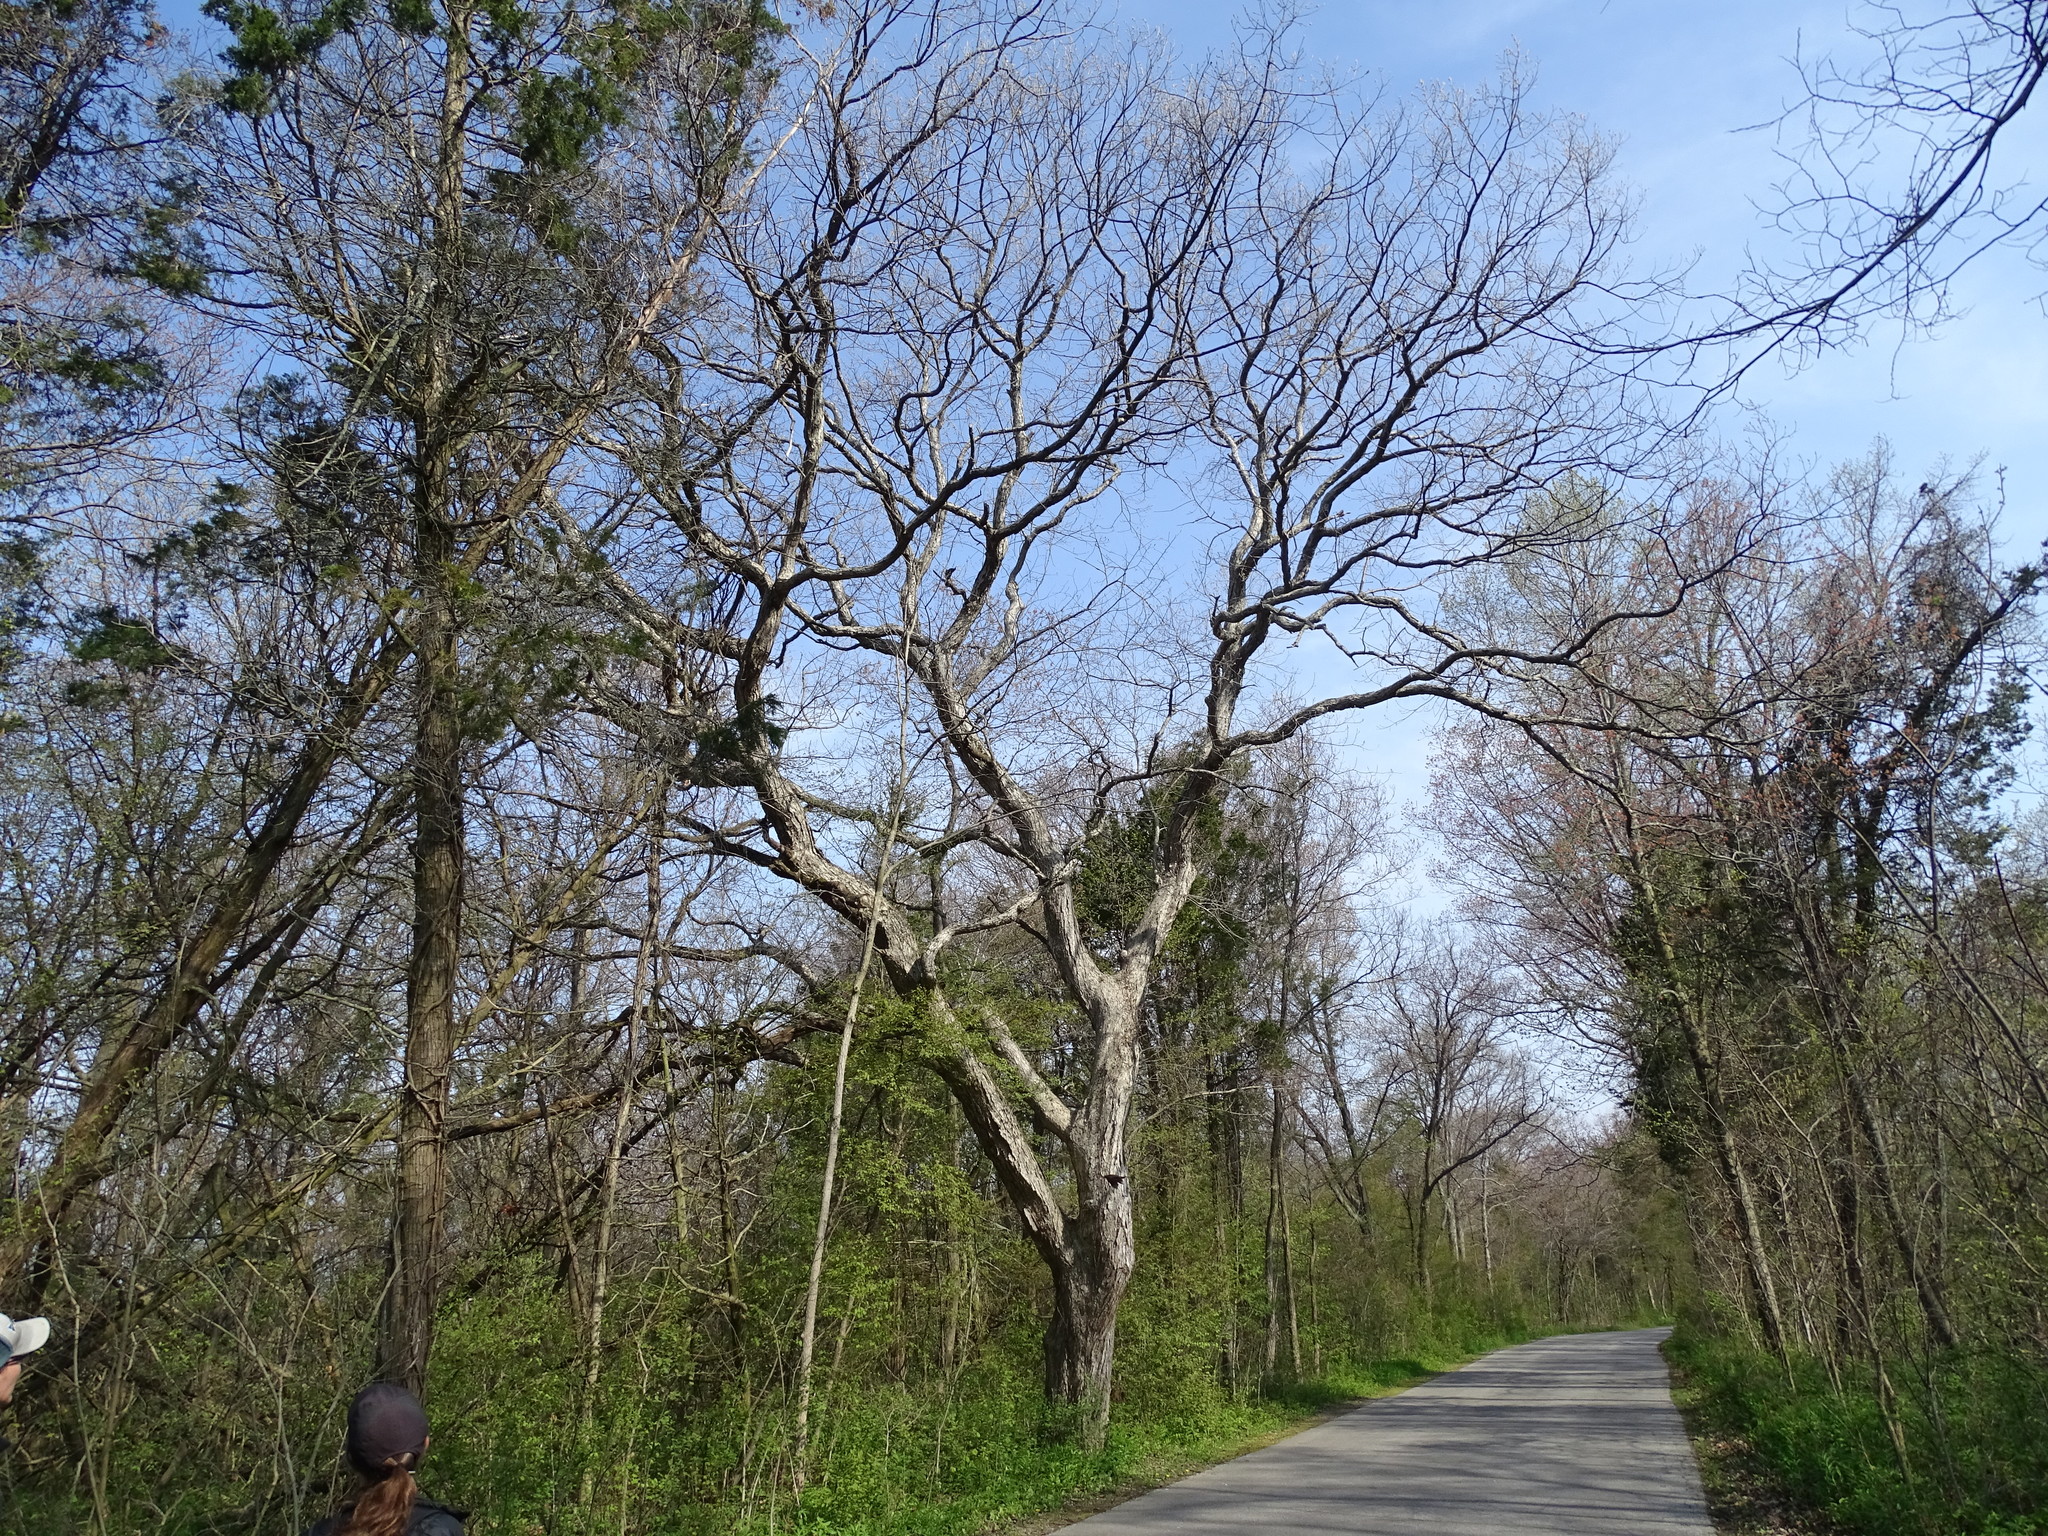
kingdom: Plantae
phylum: Tracheophyta
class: Magnoliopsida
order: Fagales
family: Fagaceae
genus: Quercus
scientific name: Quercus muehlenbergii
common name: Chinkapin oak
